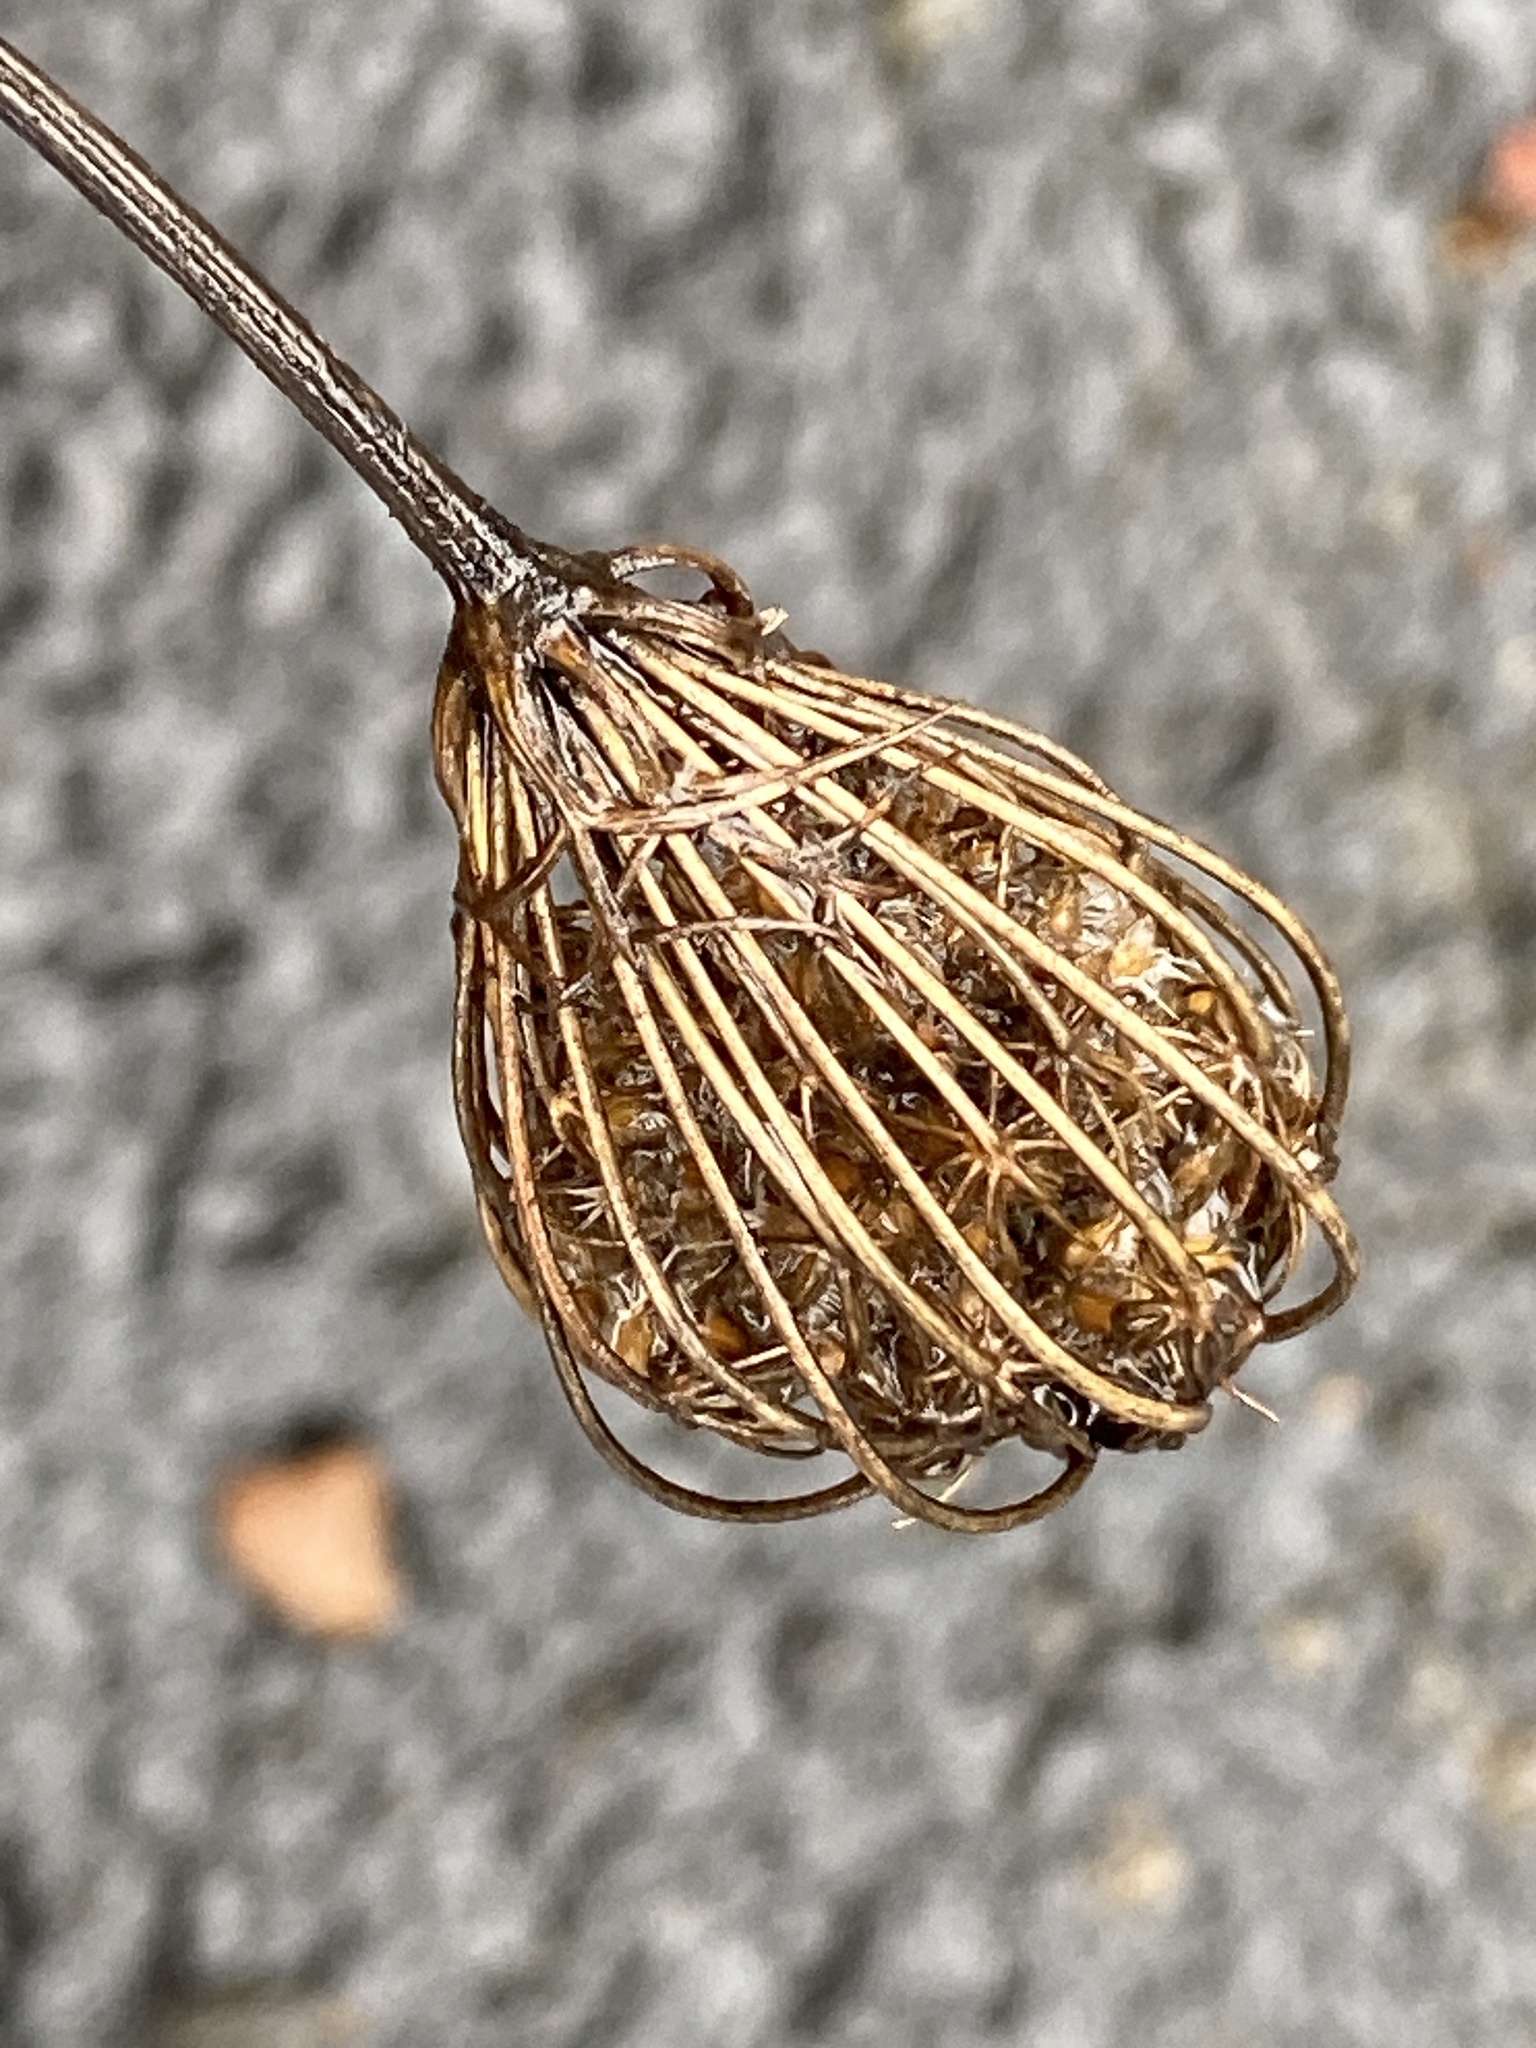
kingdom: Plantae
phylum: Tracheophyta
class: Magnoliopsida
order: Apiales
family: Apiaceae
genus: Daucus
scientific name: Daucus carota
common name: Wild carrot
